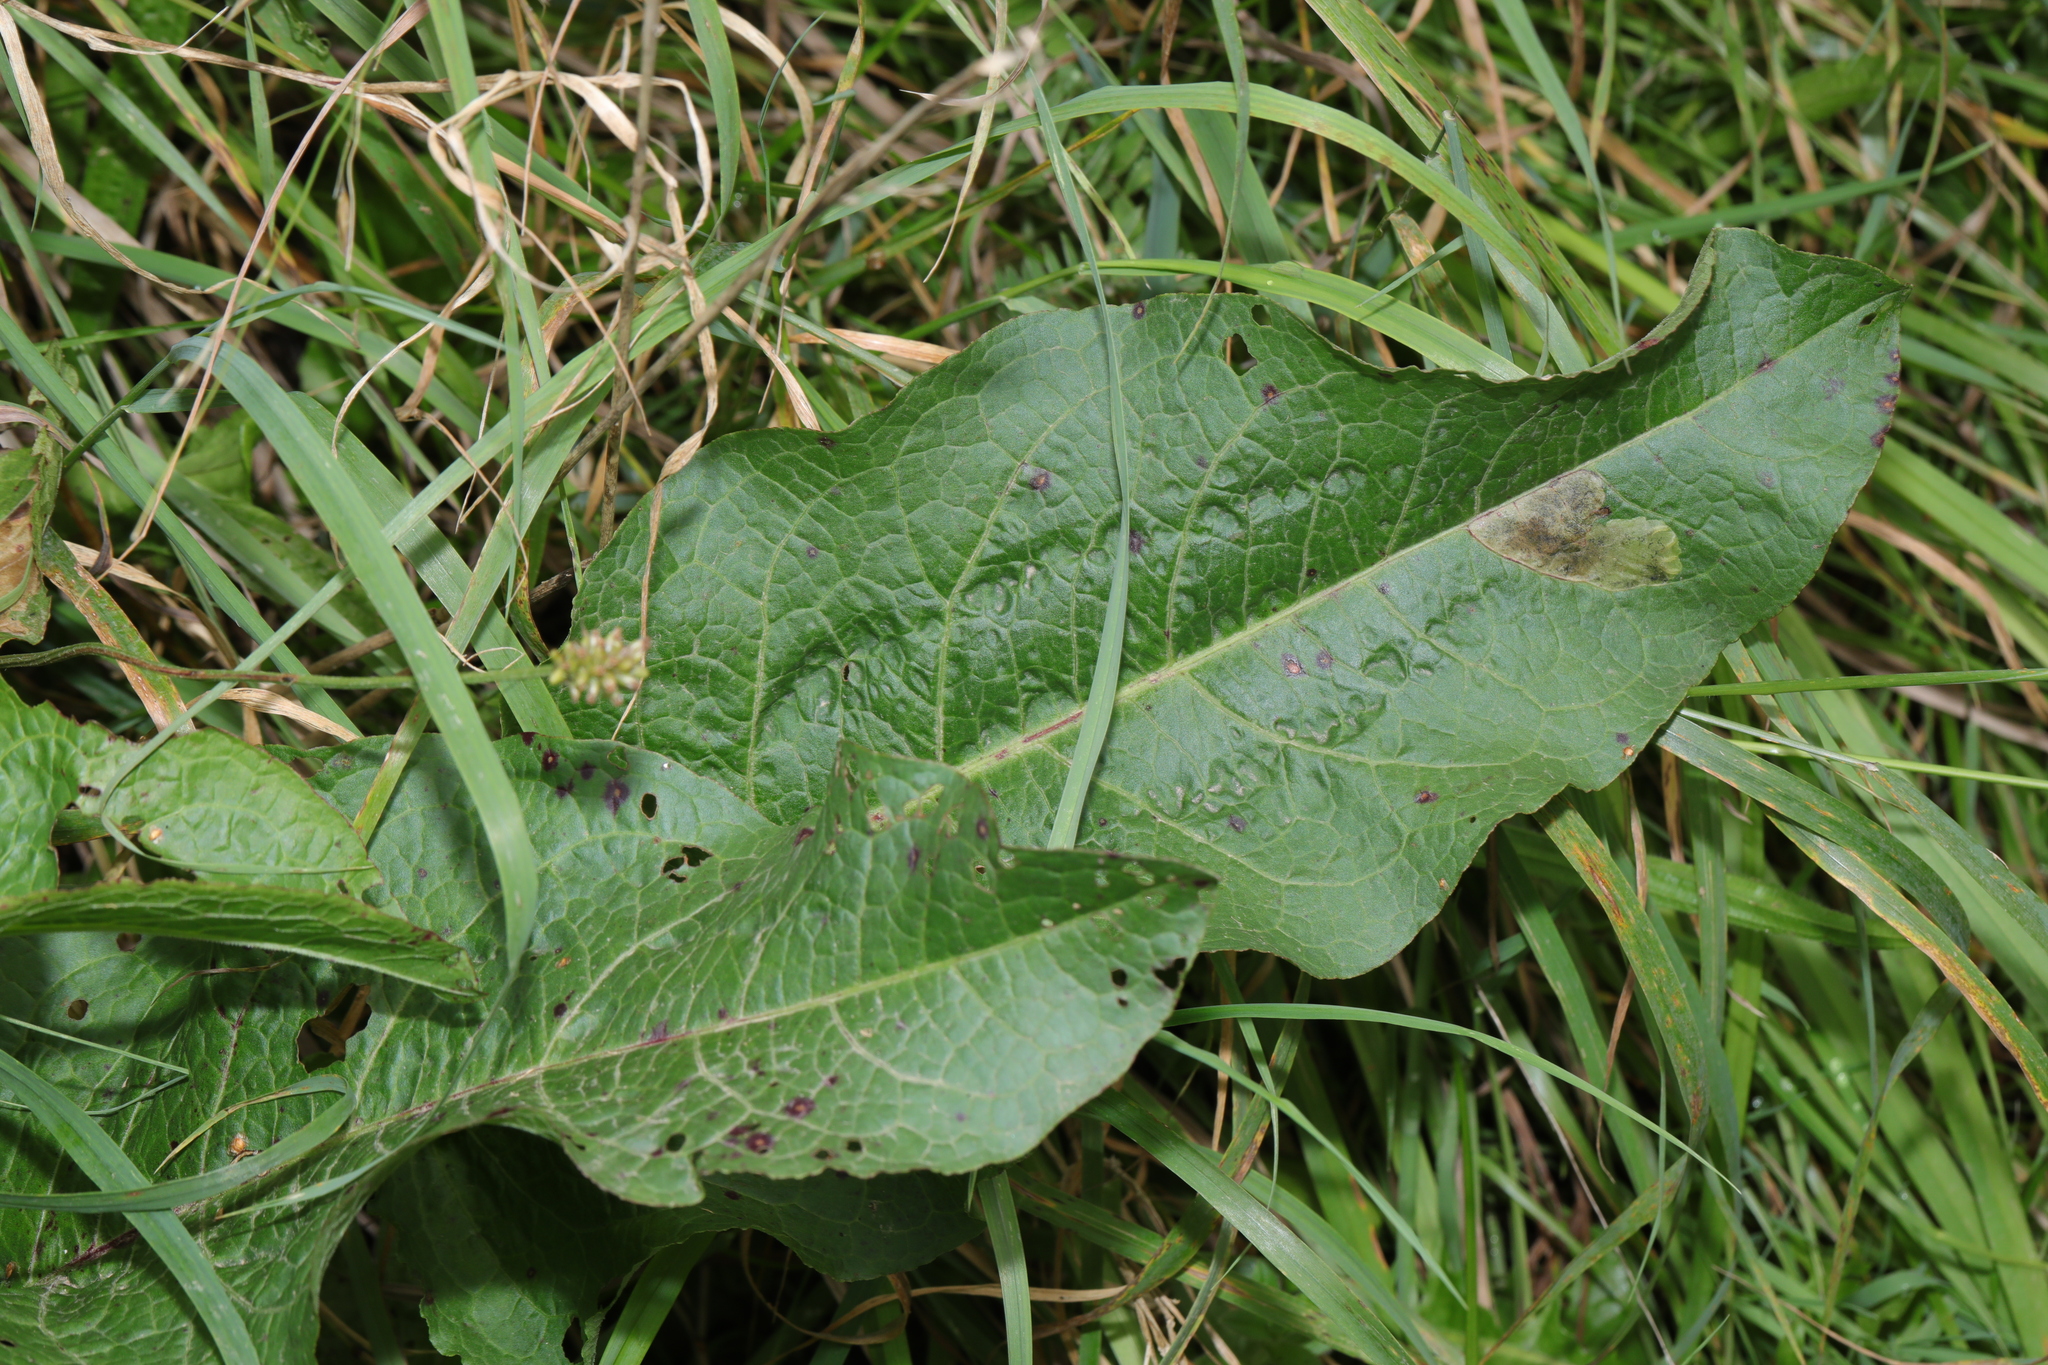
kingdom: Plantae
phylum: Tracheophyta
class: Magnoliopsida
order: Caryophyllales
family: Polygonaceae
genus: Rumex
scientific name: Rumex obtusifolius
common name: Bitter dock
